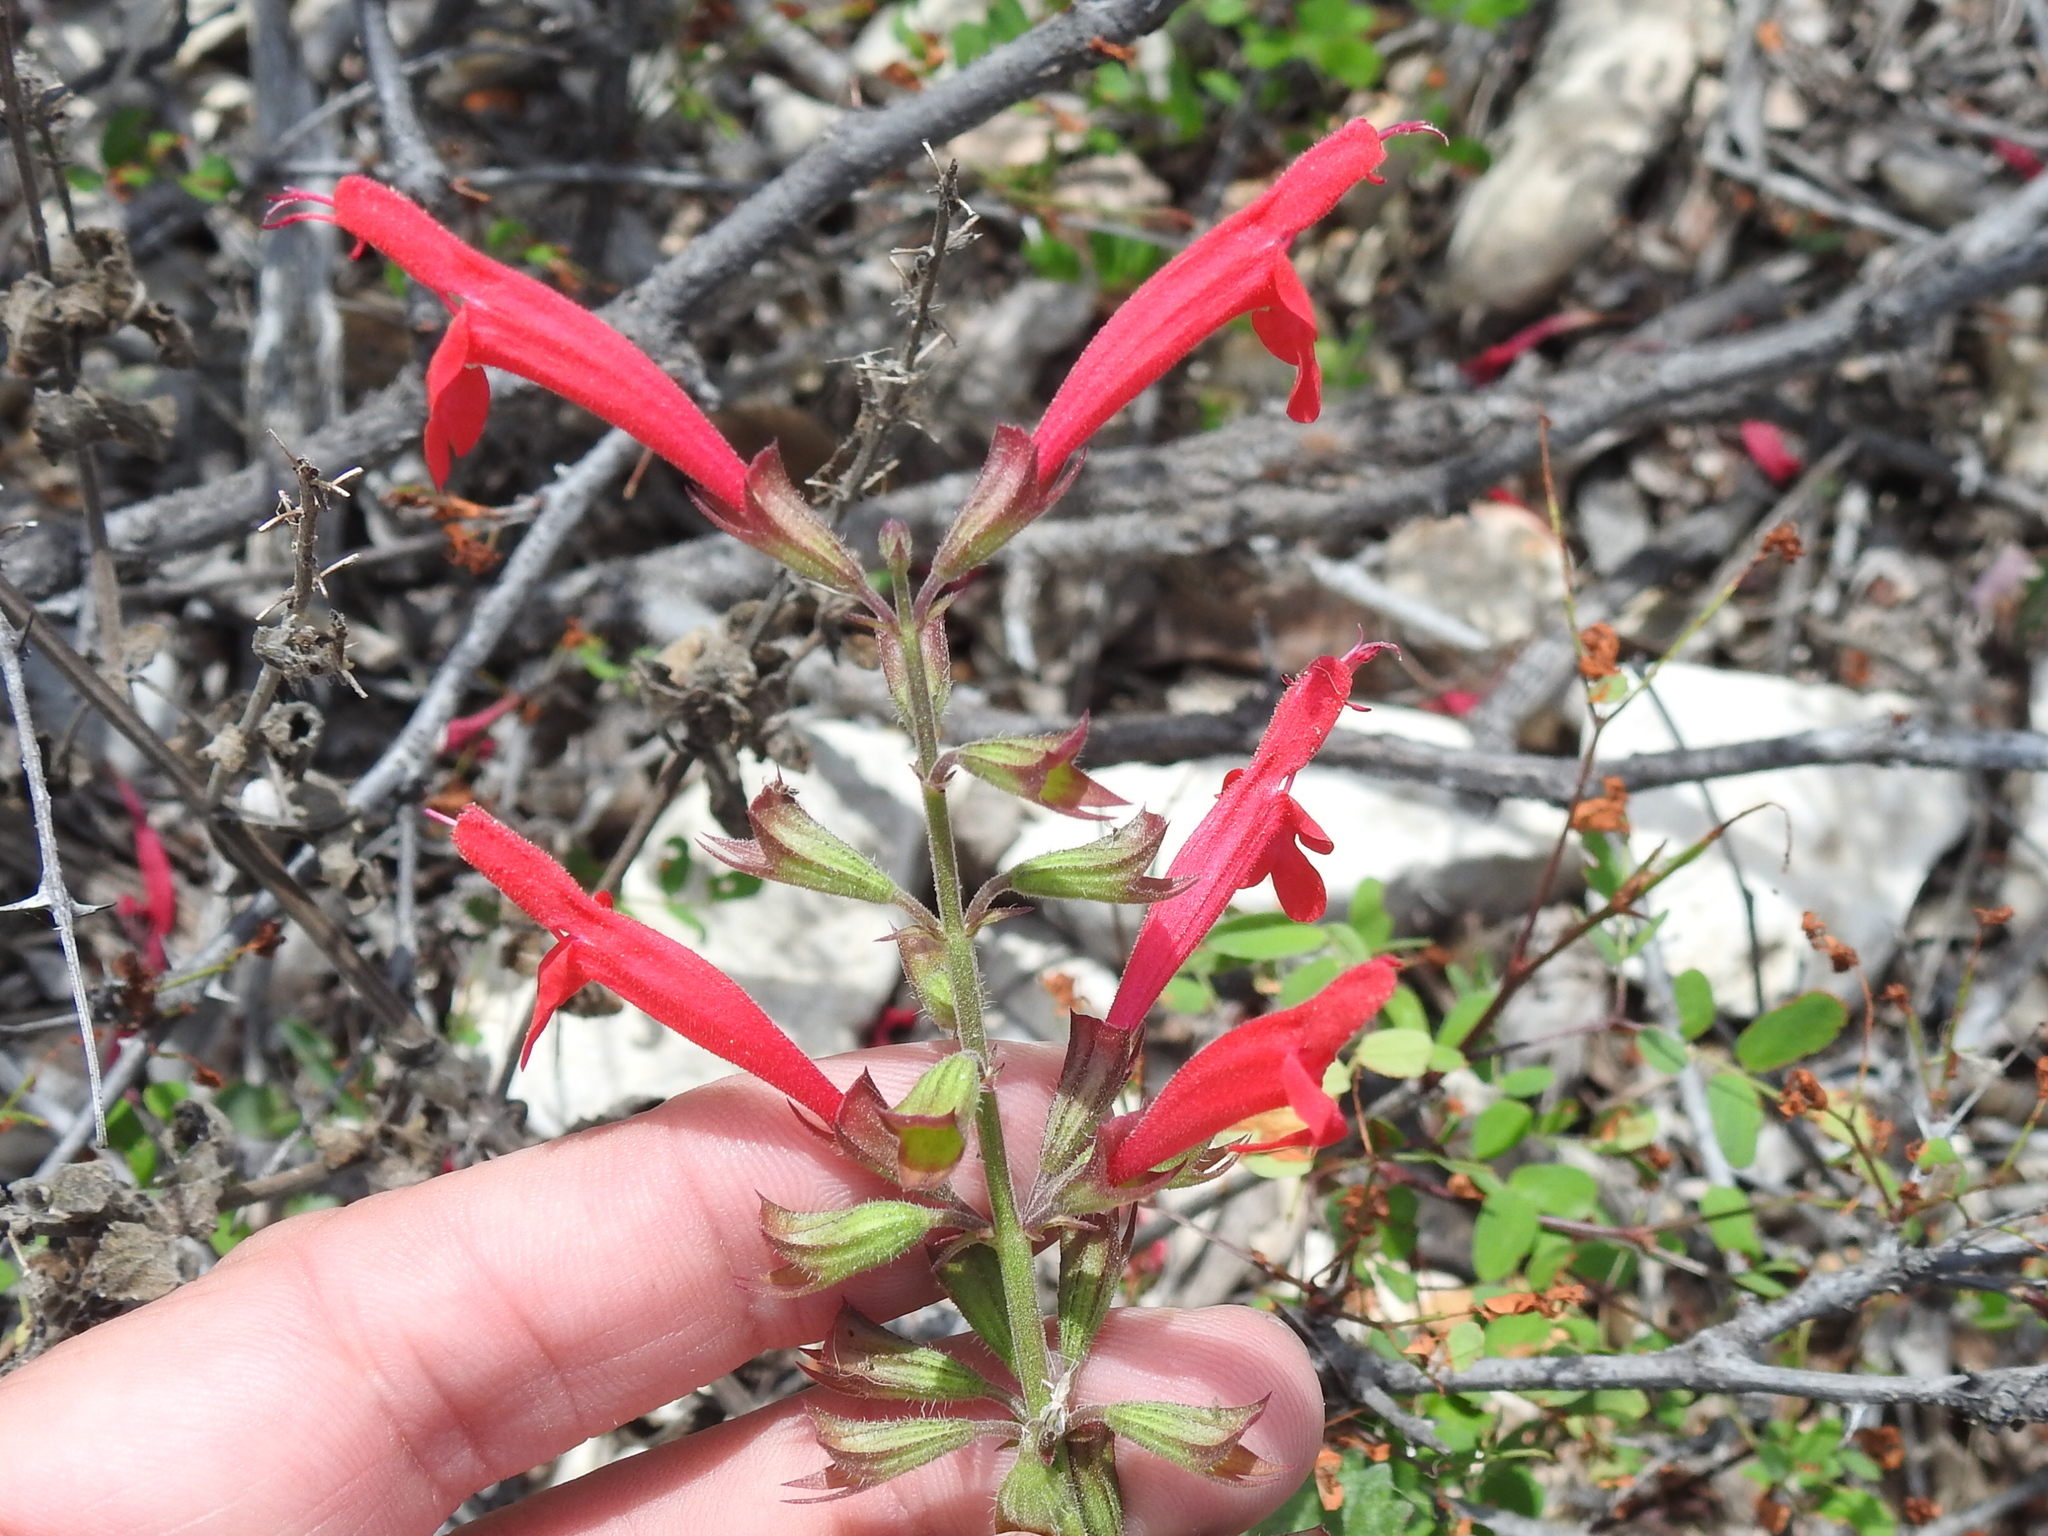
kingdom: Plantae
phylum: Tracheophyta
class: Magnoliopsida
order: Lamiales
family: Lamiaceae
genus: Salvia
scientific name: Salvia roemeriana
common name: Cedar sage
